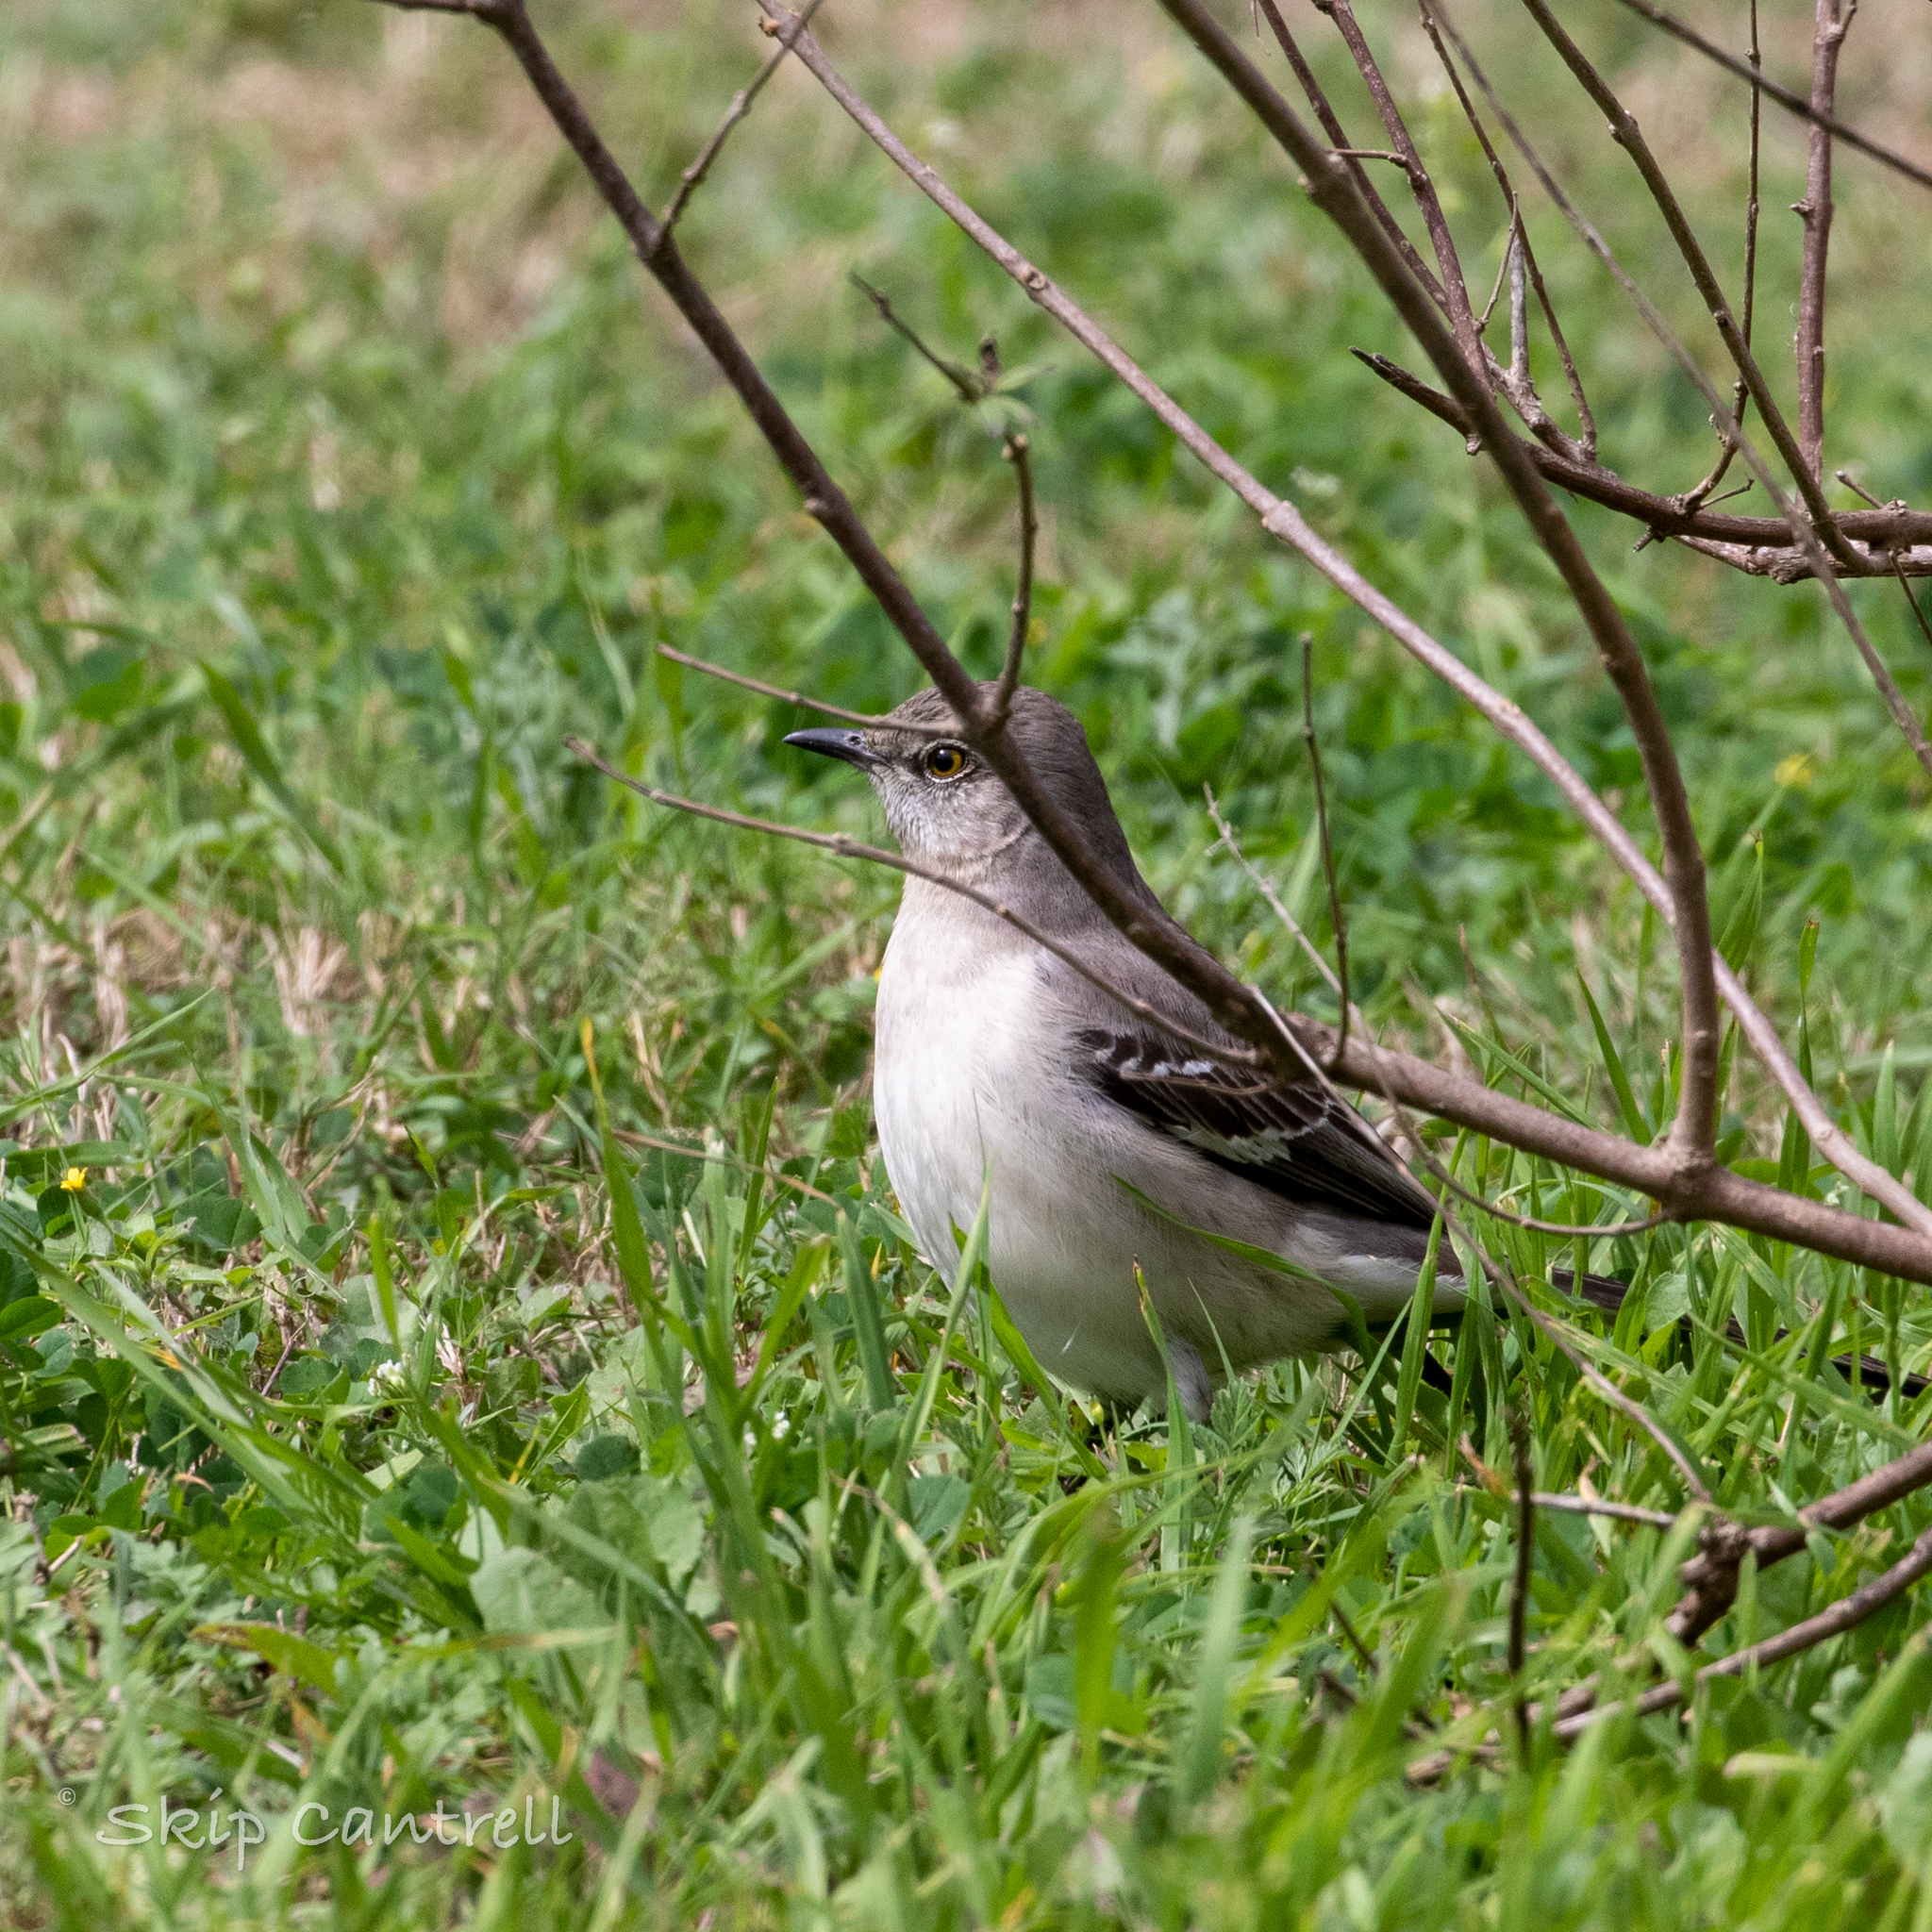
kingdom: Animalia
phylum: Chordata
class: Aves
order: Passeriformes
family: Mimidae
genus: Mimus
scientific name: Mimus polyglottos
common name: Northern mockingbird
